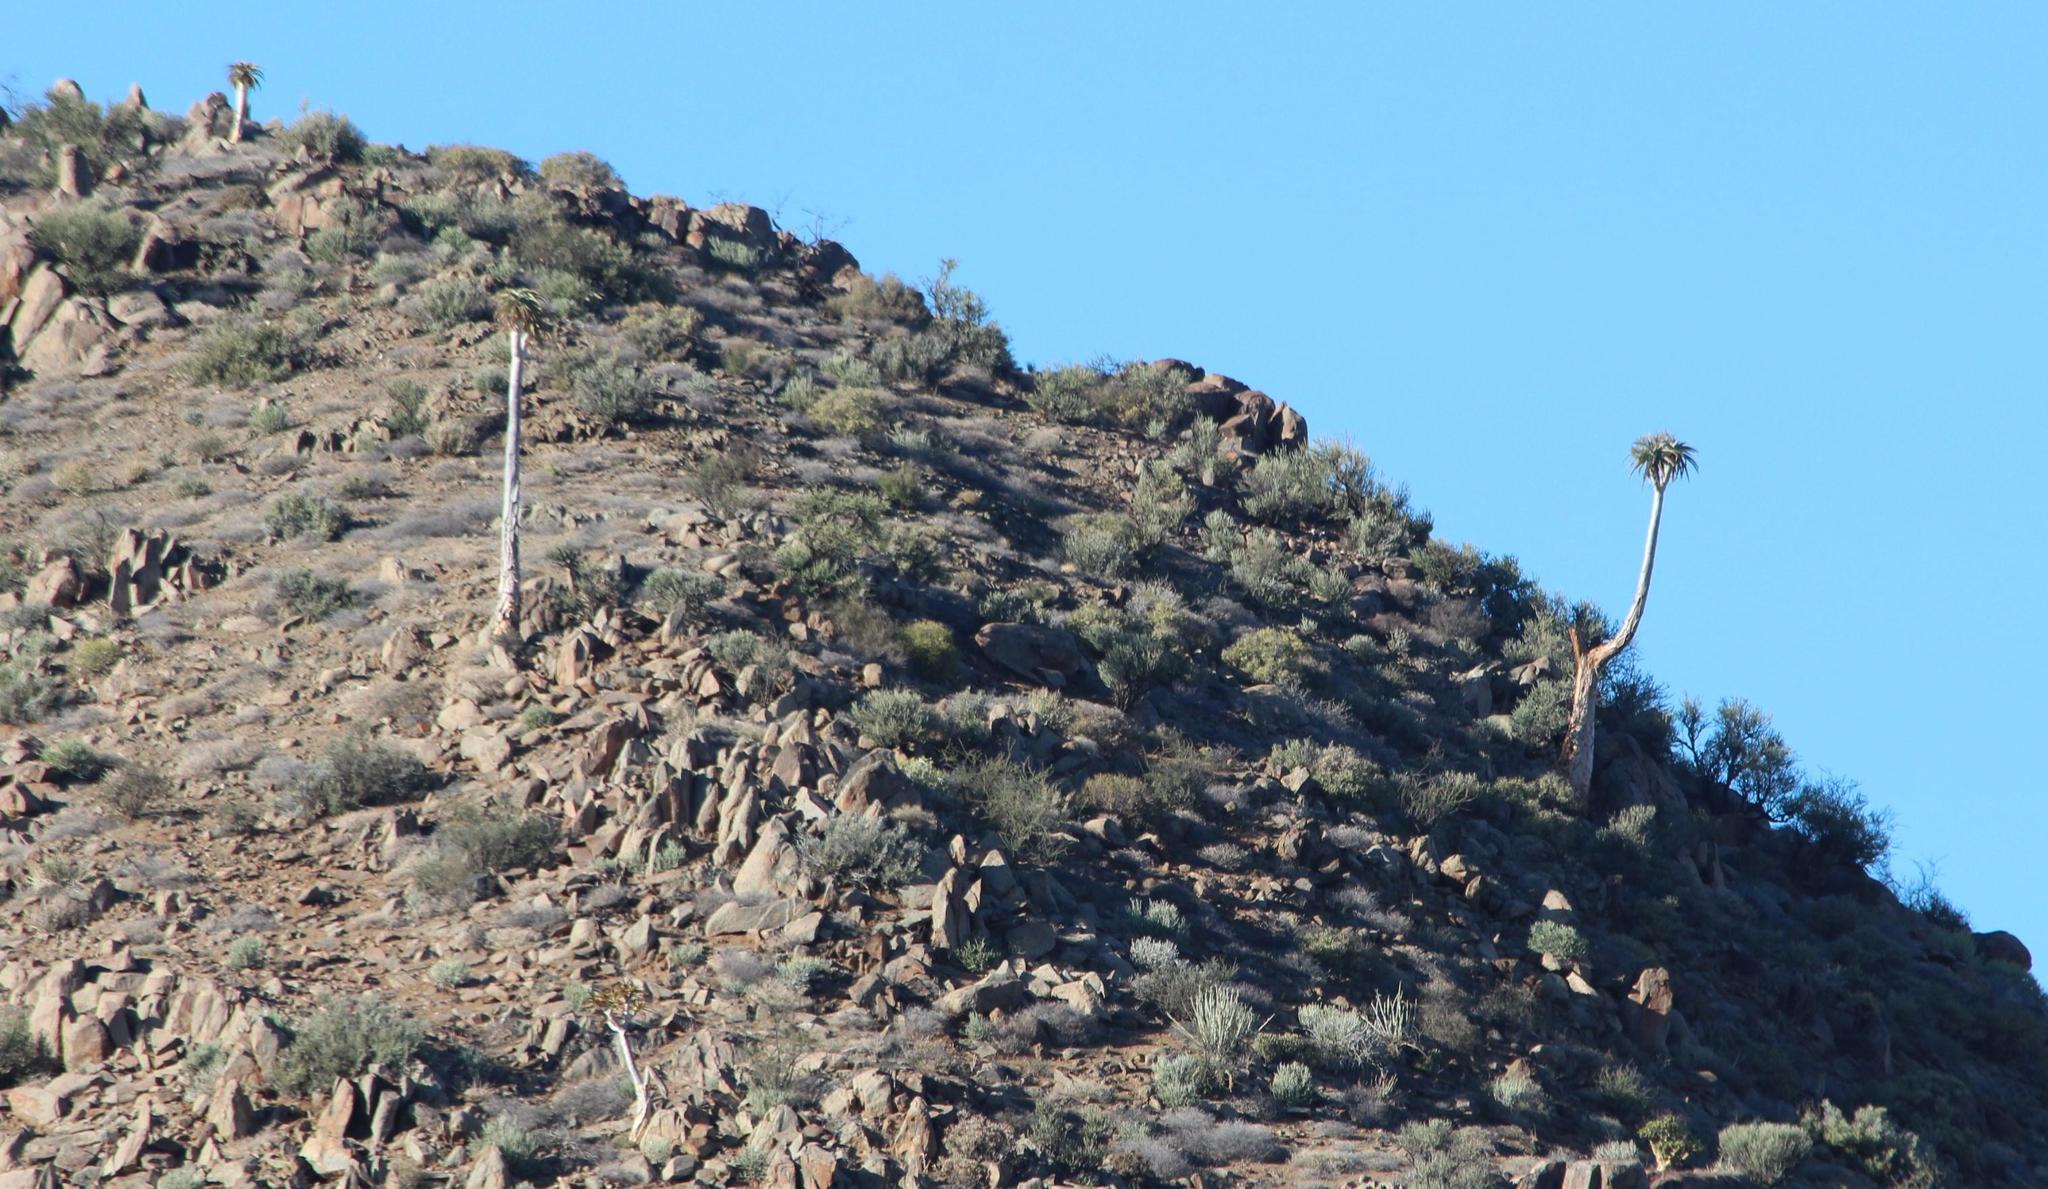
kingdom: Plantae
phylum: Tracheophyta
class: Liliopsida
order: Asparagales
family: Asphodelaceae
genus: Aloidendron
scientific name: Aloidendron pillansii
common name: Bastard quiver tree
